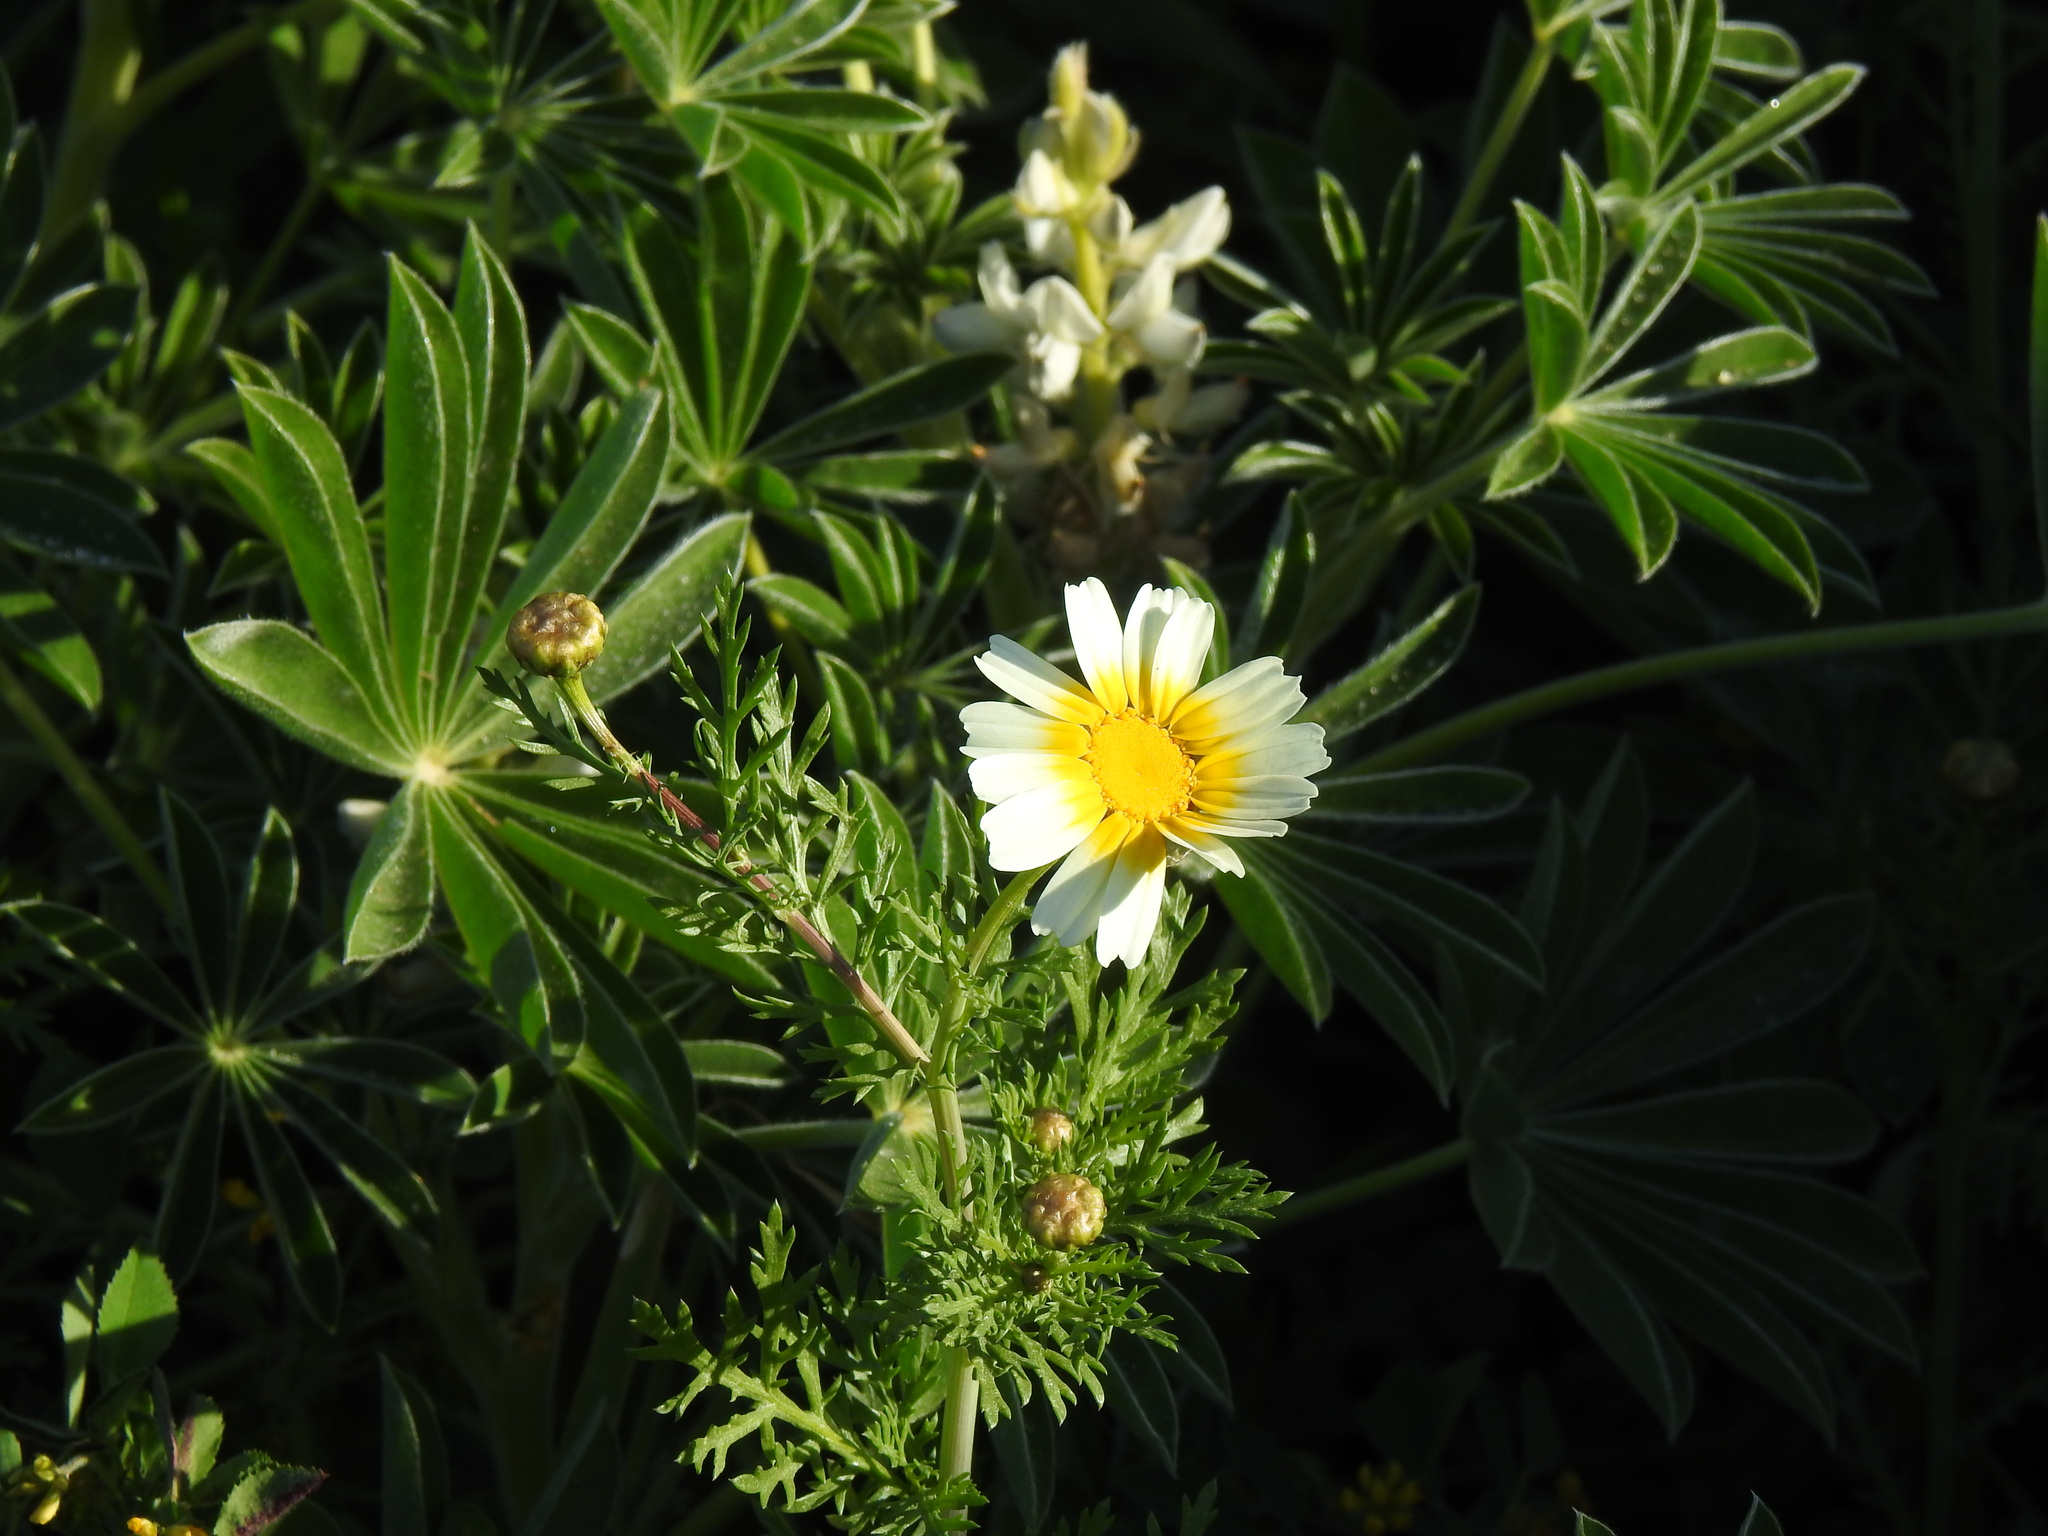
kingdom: Plantae
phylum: Tracheophyta
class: Magnoliopsida
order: Asterales
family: Asteraceae
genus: Glebionis
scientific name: Glebionis coronaria
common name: Crowndaisy
